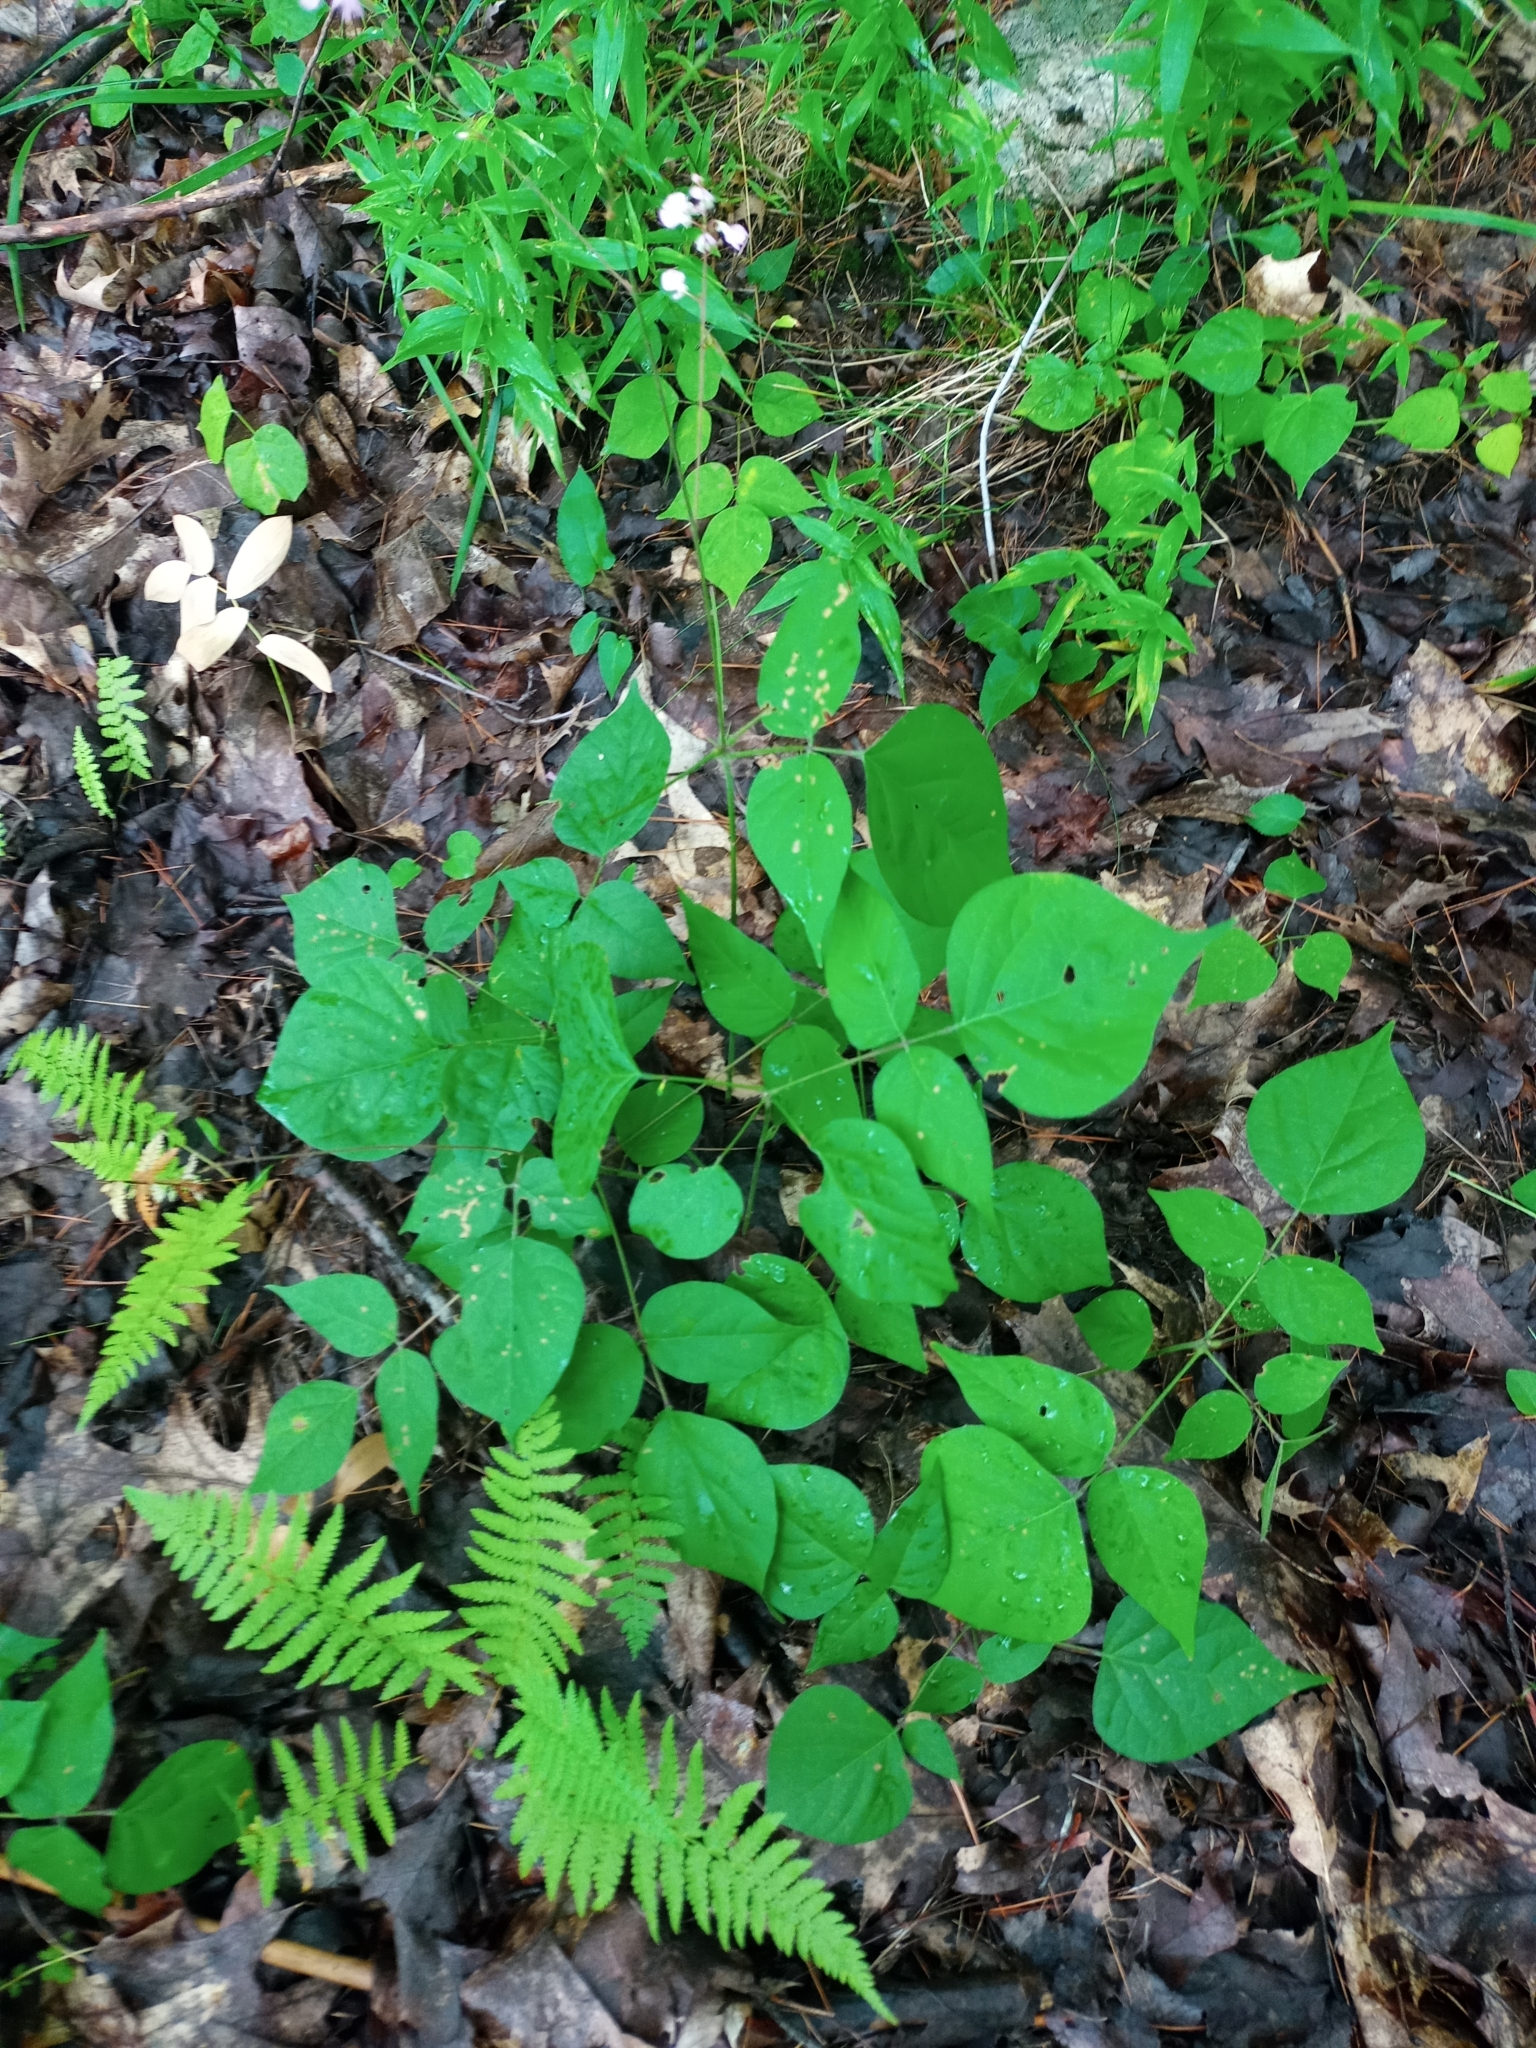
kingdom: Plantae
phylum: Tracheophyta
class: Magnoliopsida
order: Fabales
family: Fabaceae
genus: Hylodesmum
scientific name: Hylodesmum glutinosum
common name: Clustered-leaved tick-trefoil
